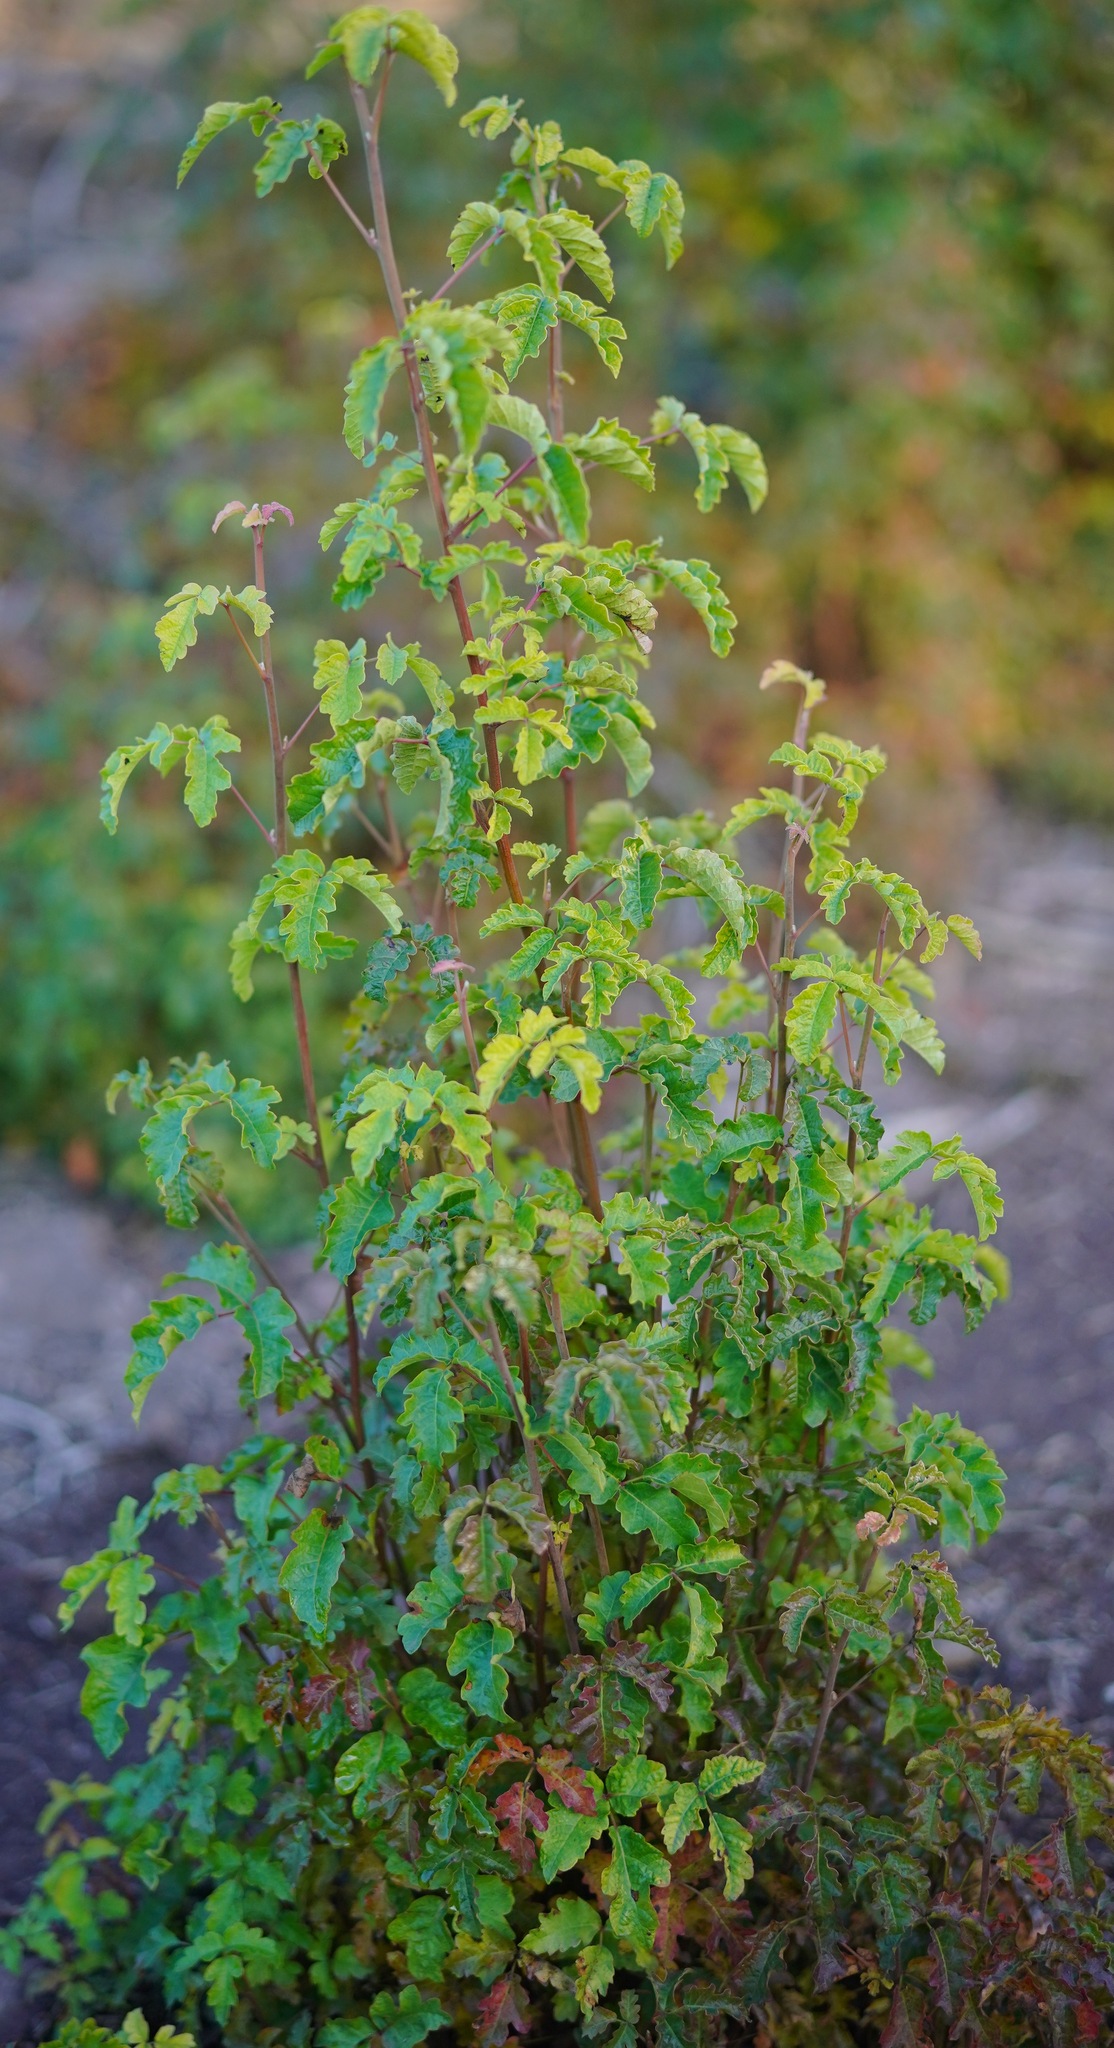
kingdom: Plantae
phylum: Tracheophyta
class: Magnoliopsida
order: Sapindales
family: Anacardiaceae
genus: Toxicodendron
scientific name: Toxicodendron diversilobum
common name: Pacific poison-oak
